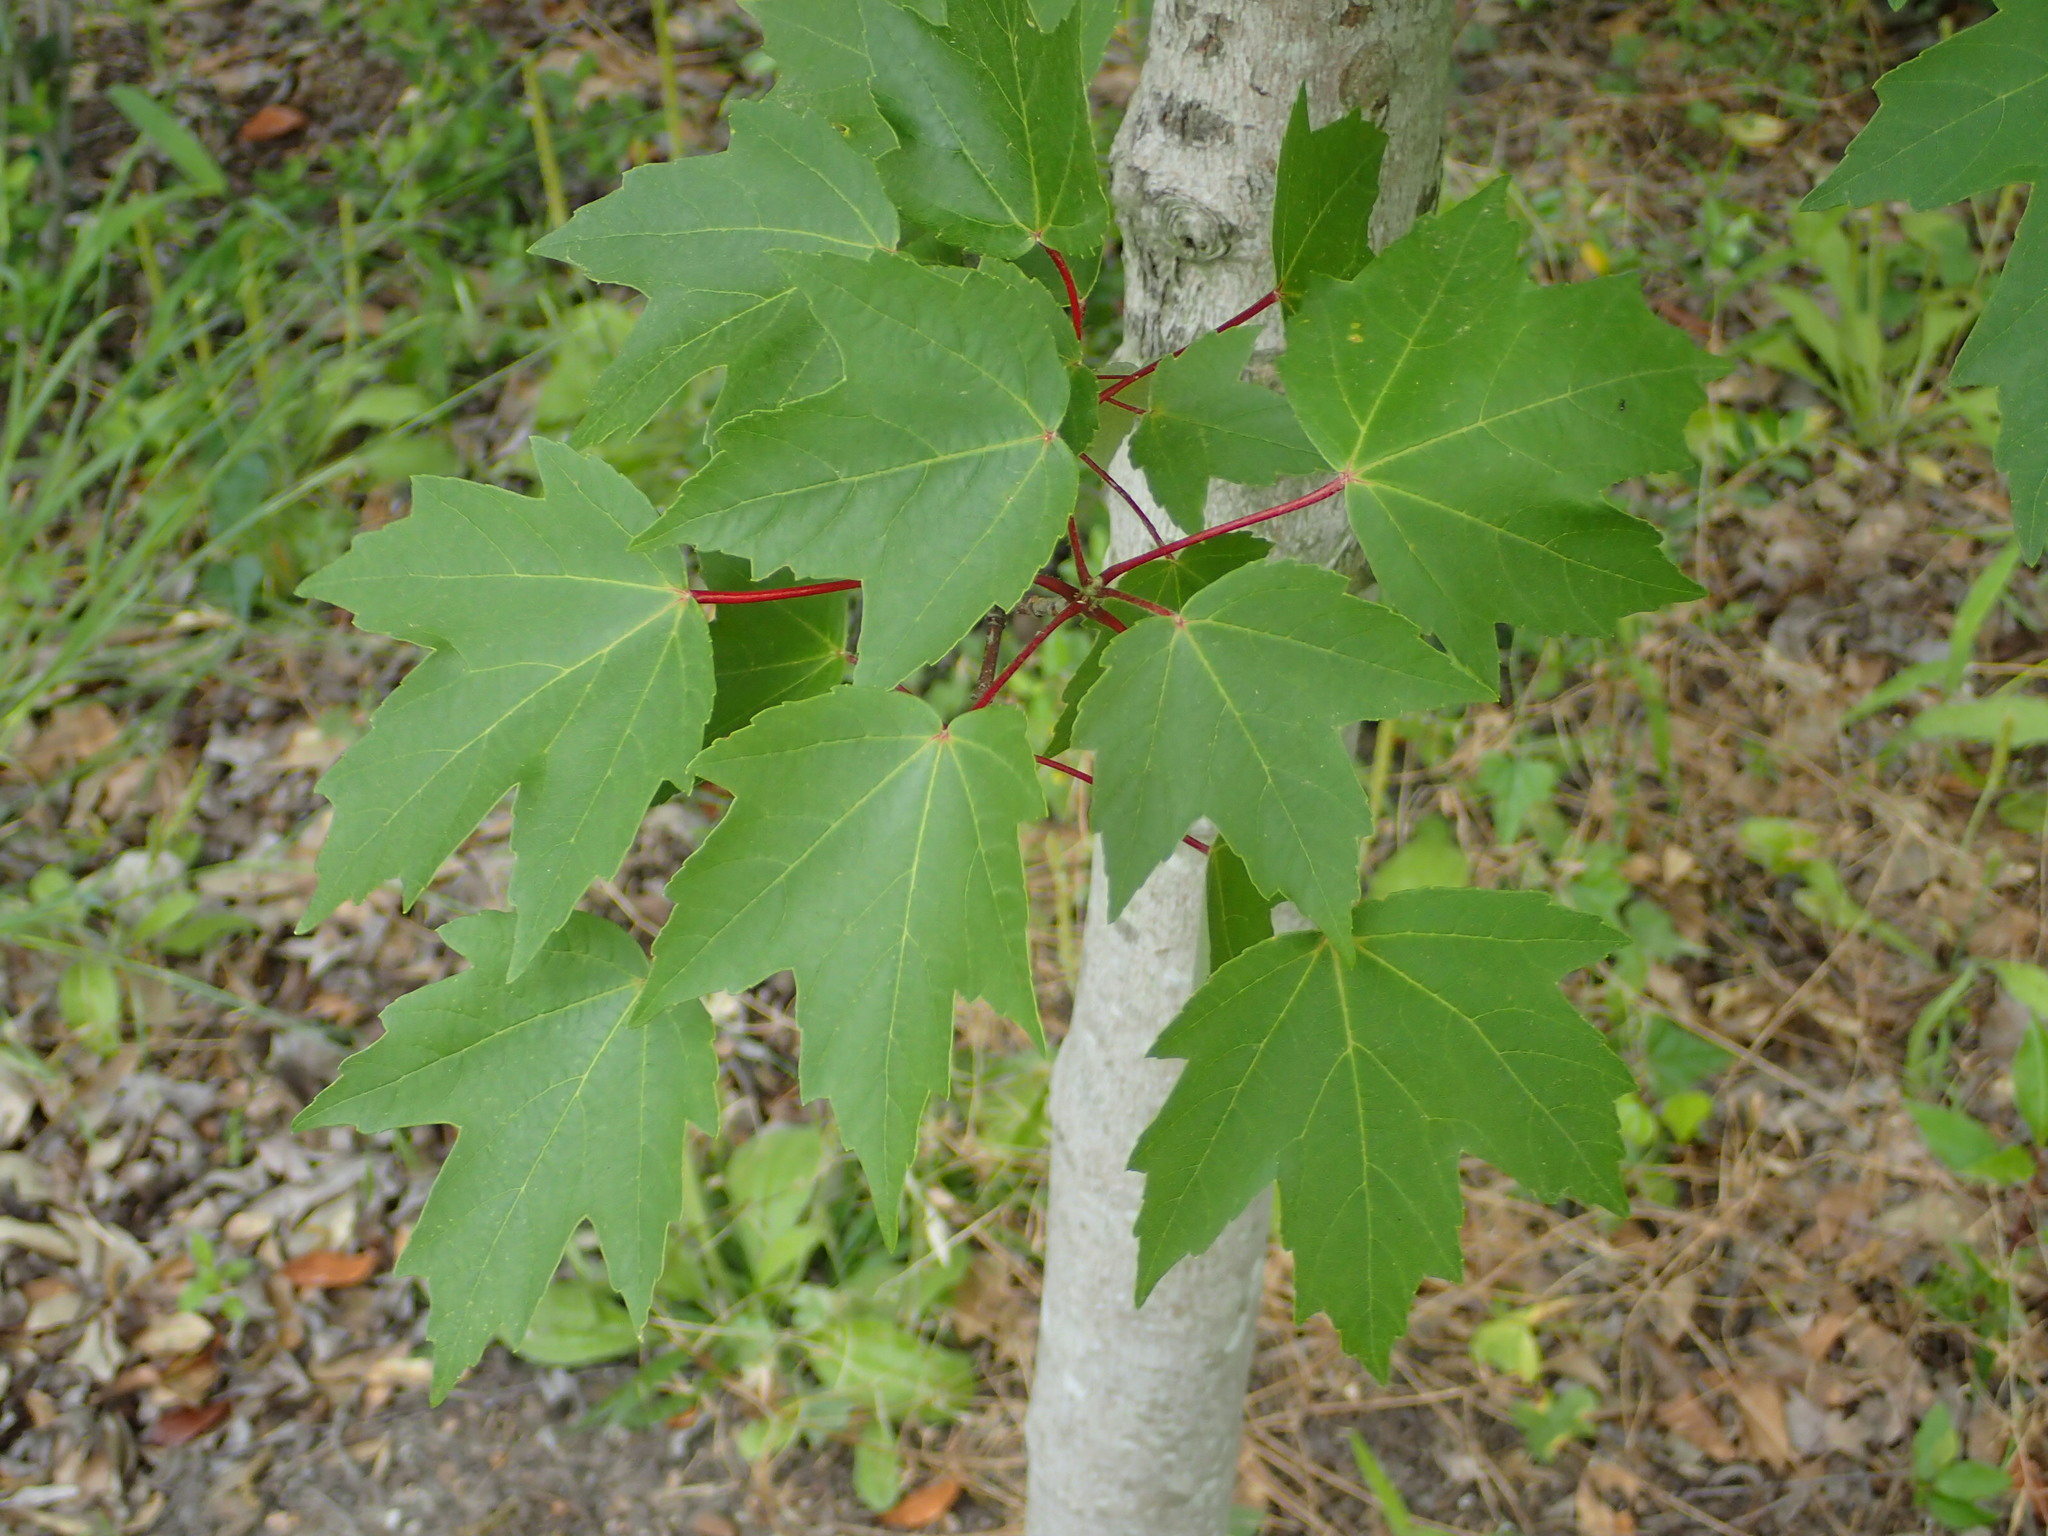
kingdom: Plantae
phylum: Tracheophyta
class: Magnoliopsida
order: Sapindales
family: Sapindaceae
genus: Acer
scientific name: Acer rubrum
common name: Red maple
